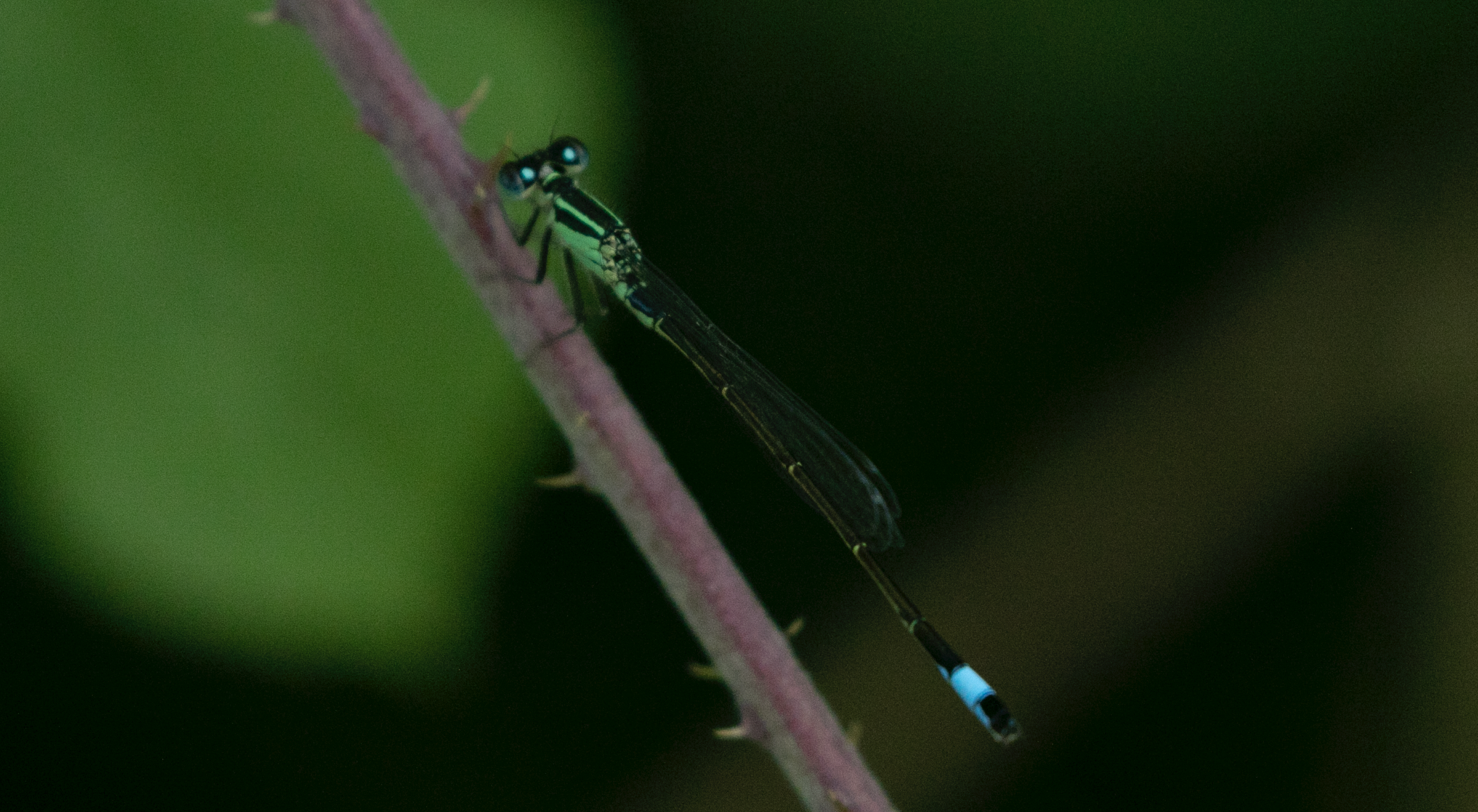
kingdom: Animalia
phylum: Arthropoda
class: Insecta
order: Odonata
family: Coenagrionidae
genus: Ischnura
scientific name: Ischnura elegans
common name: Blue-tailed damselfly
